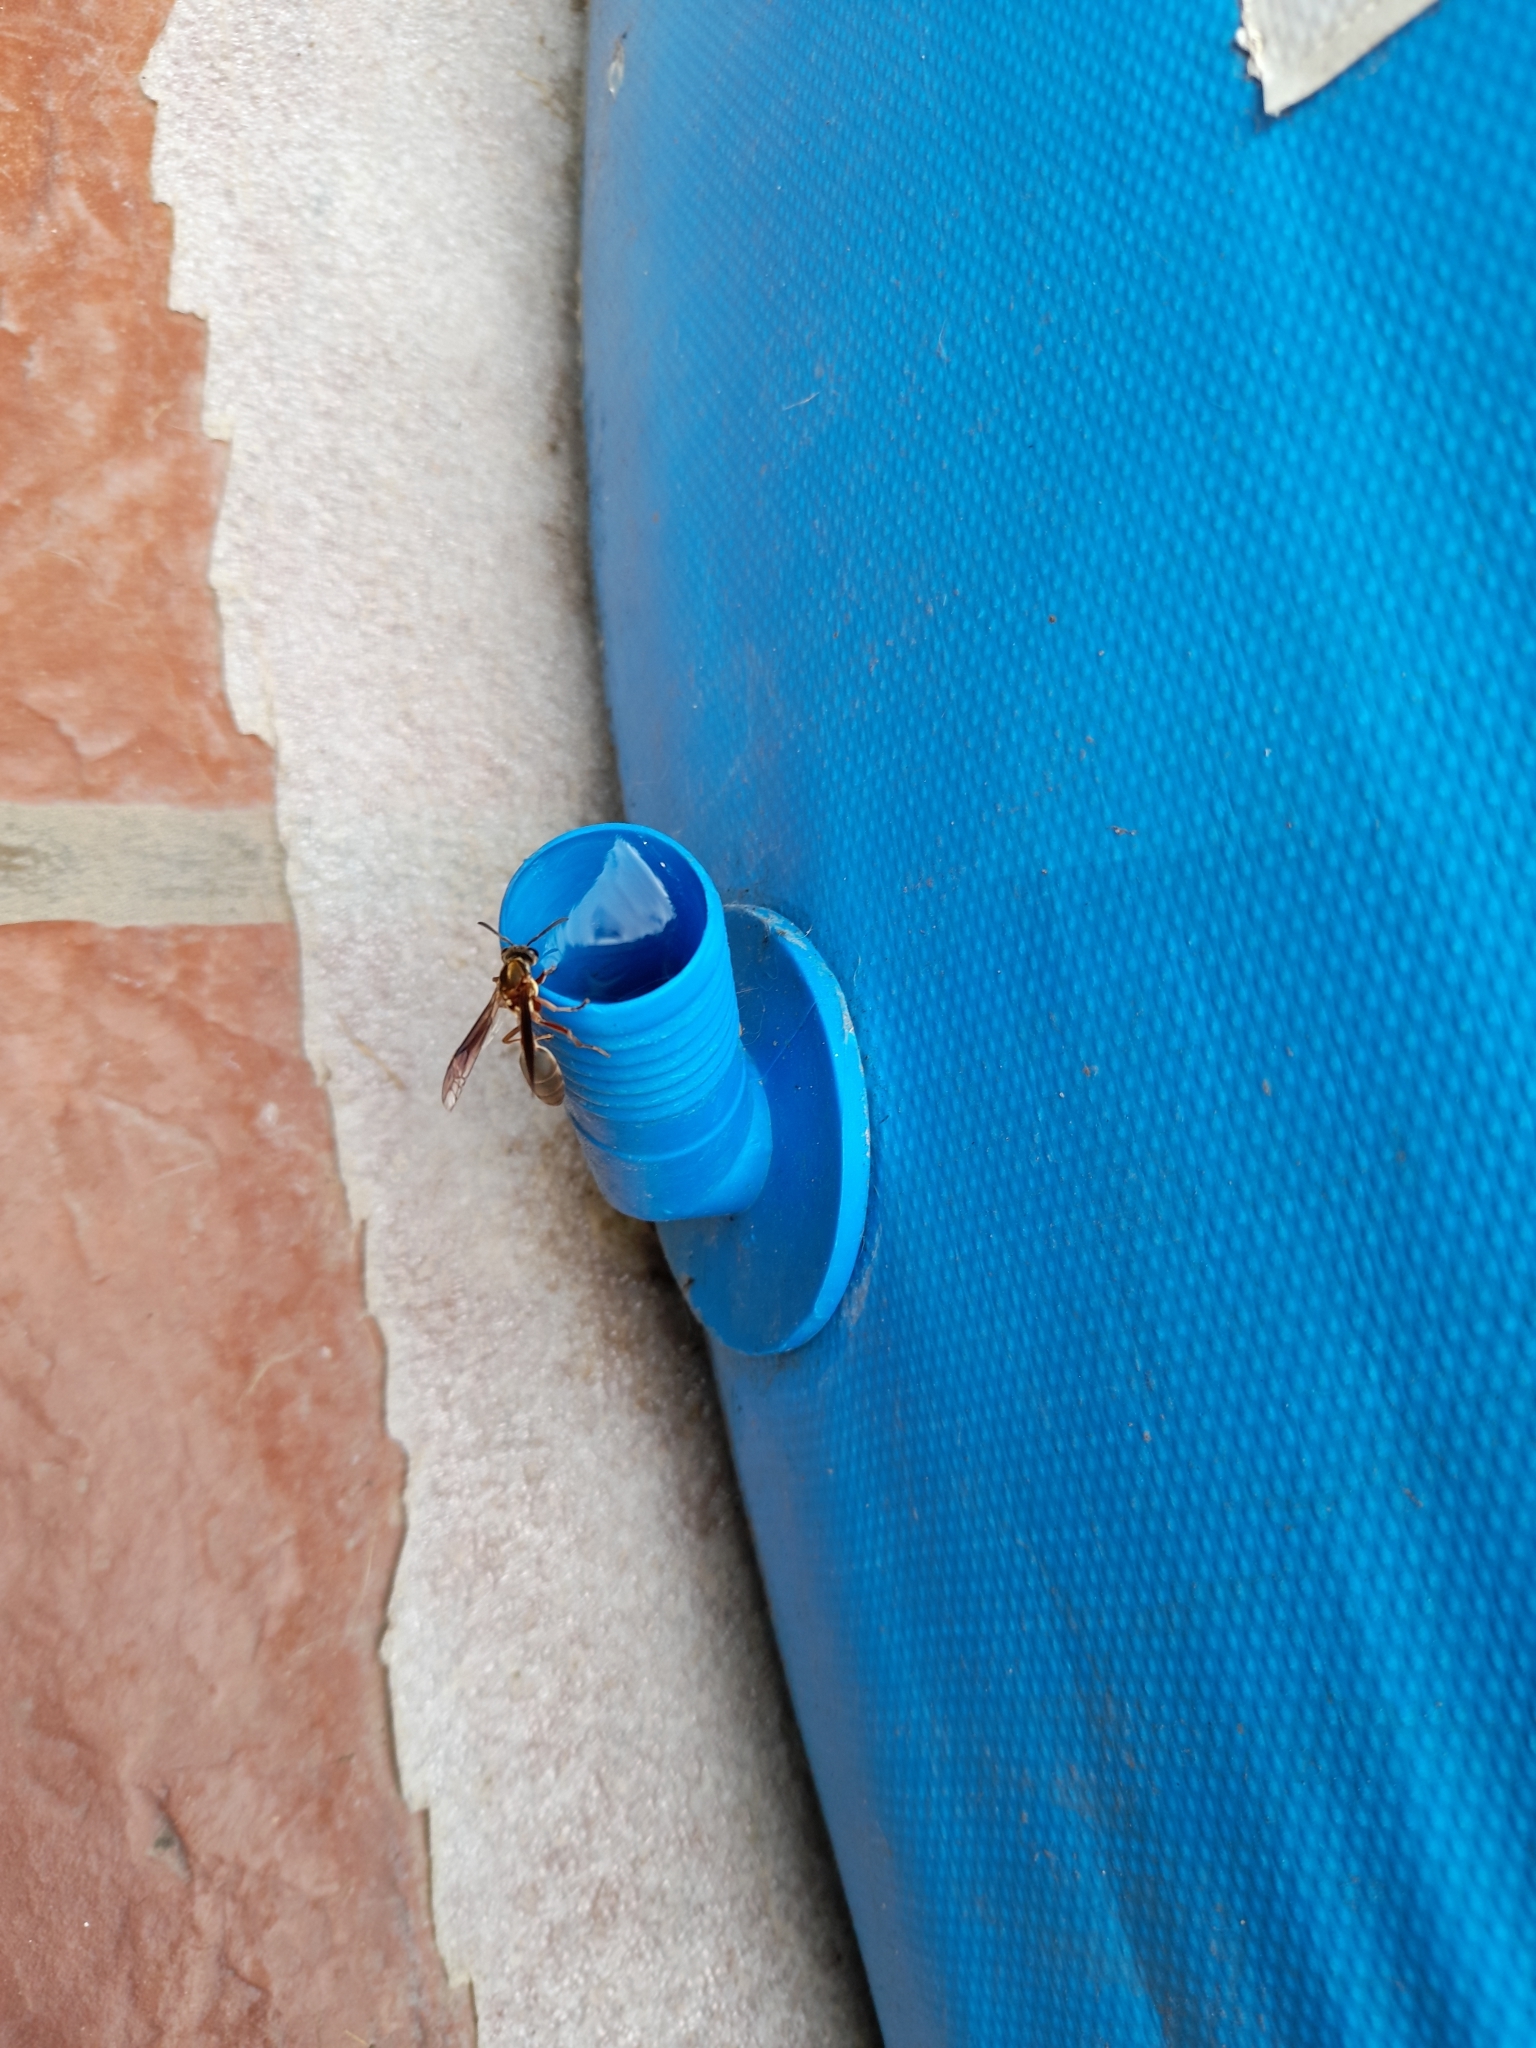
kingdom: Animalia
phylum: Arthropoda
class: Insecta
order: Hymenoptera
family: Eumenidae
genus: Polybia
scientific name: Polybia sericea
